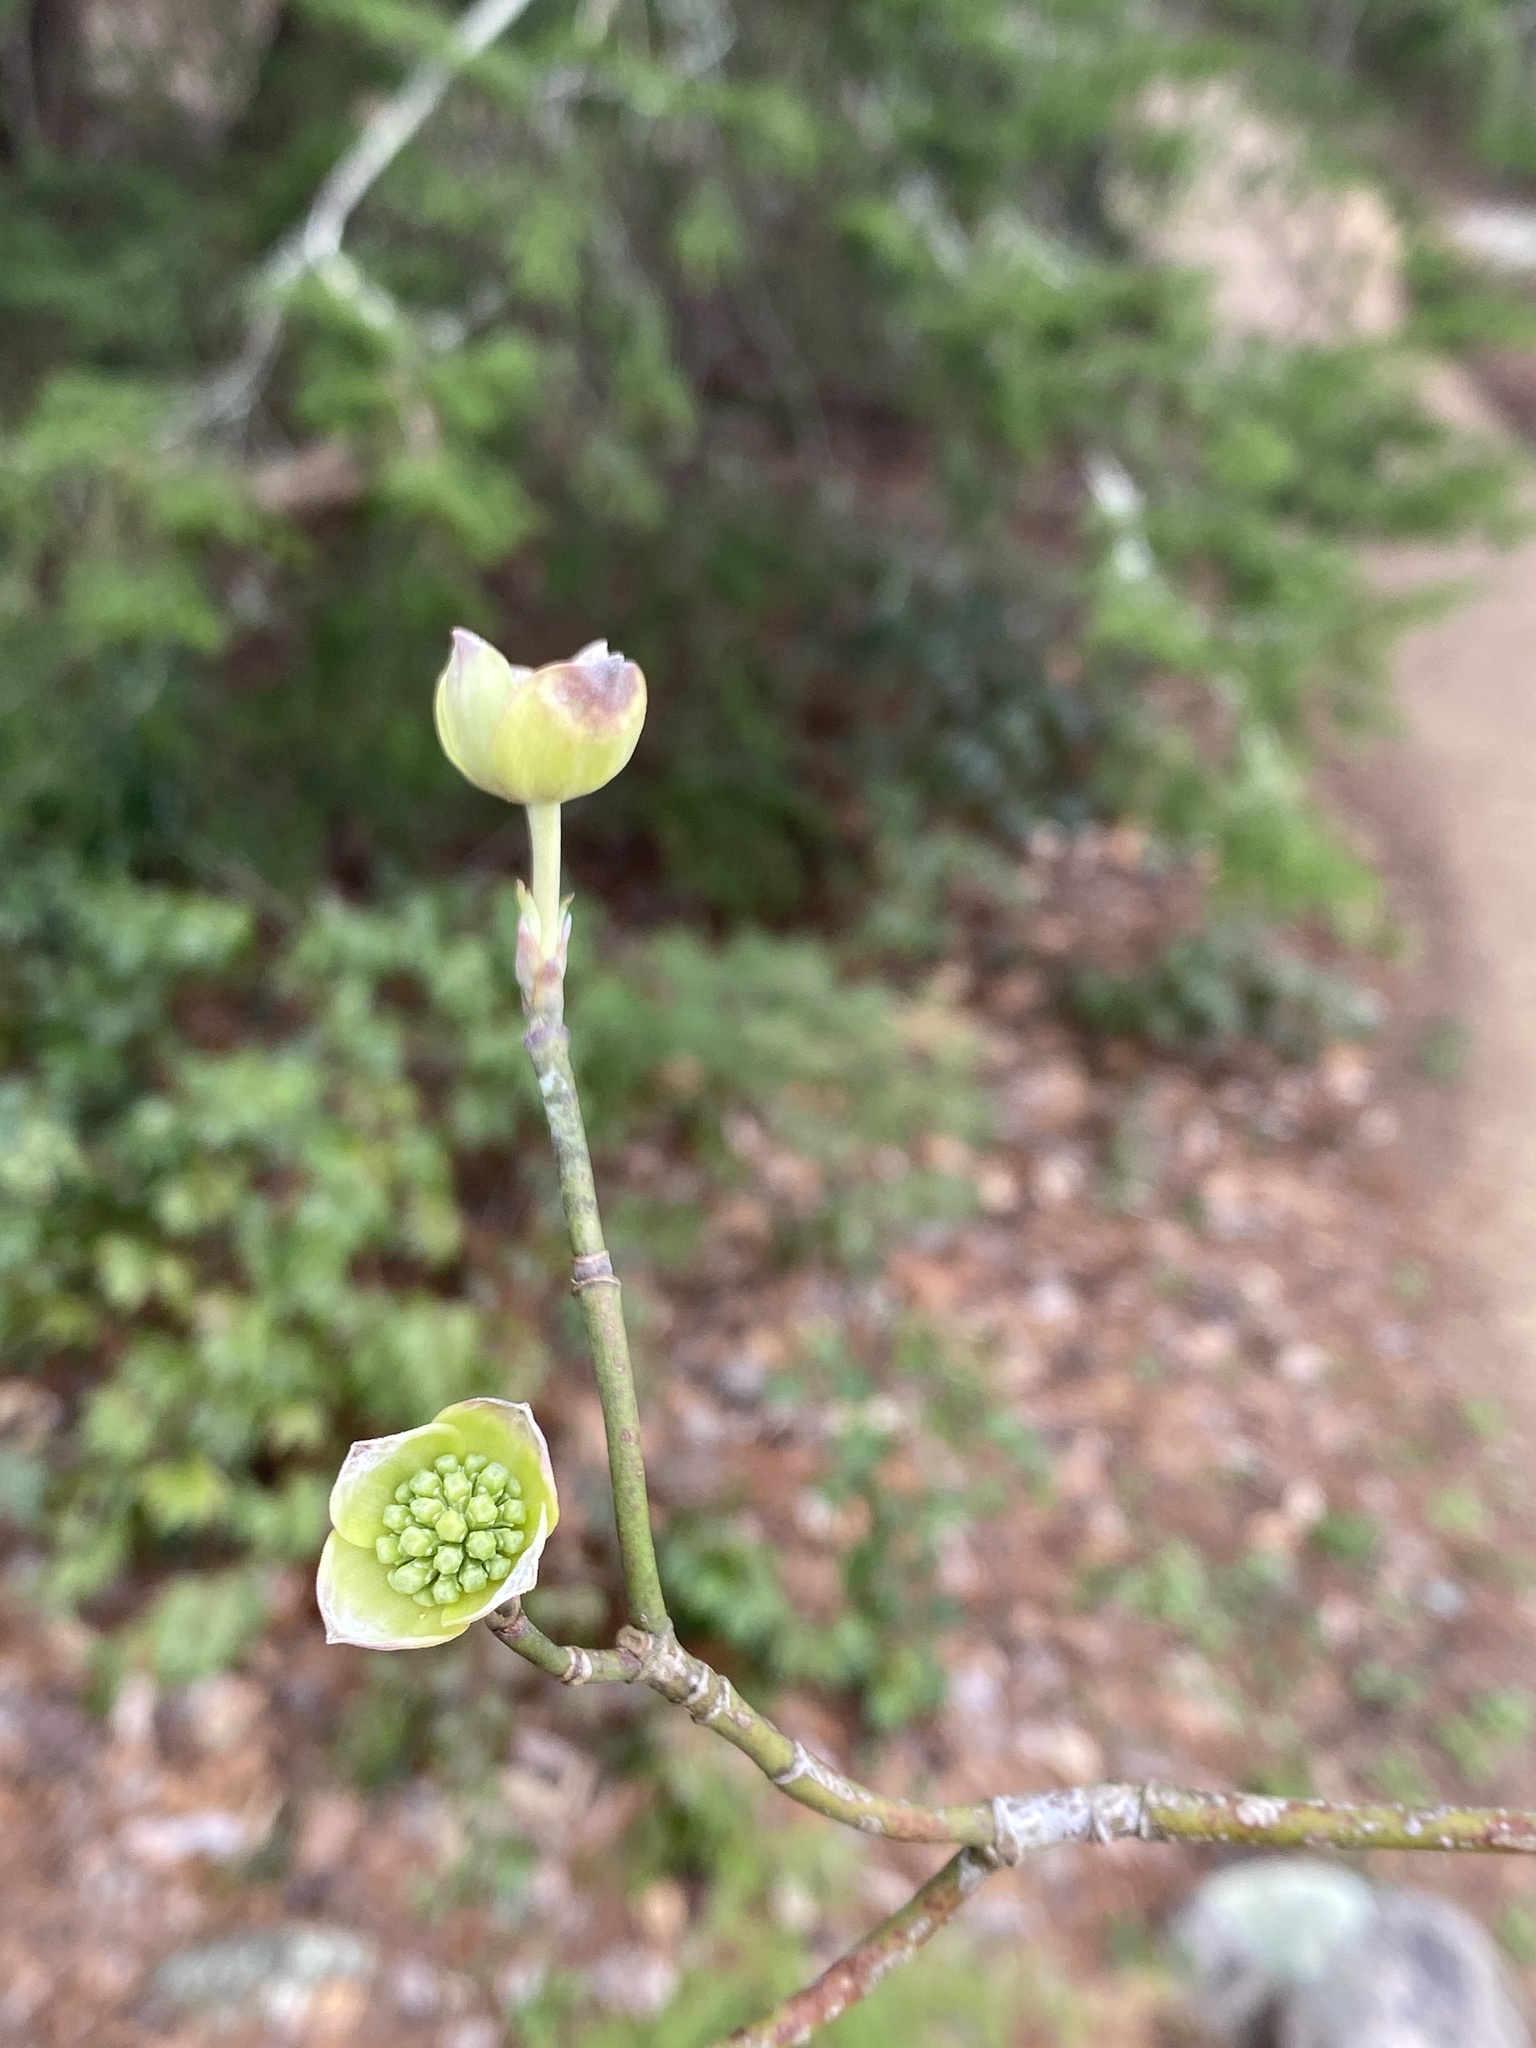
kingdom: Plantae
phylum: Tracheophyta
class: Magnoliopsida
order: Cornales
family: Cornaceae
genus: Cornus
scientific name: Cornus florida
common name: Flowering dogwood
